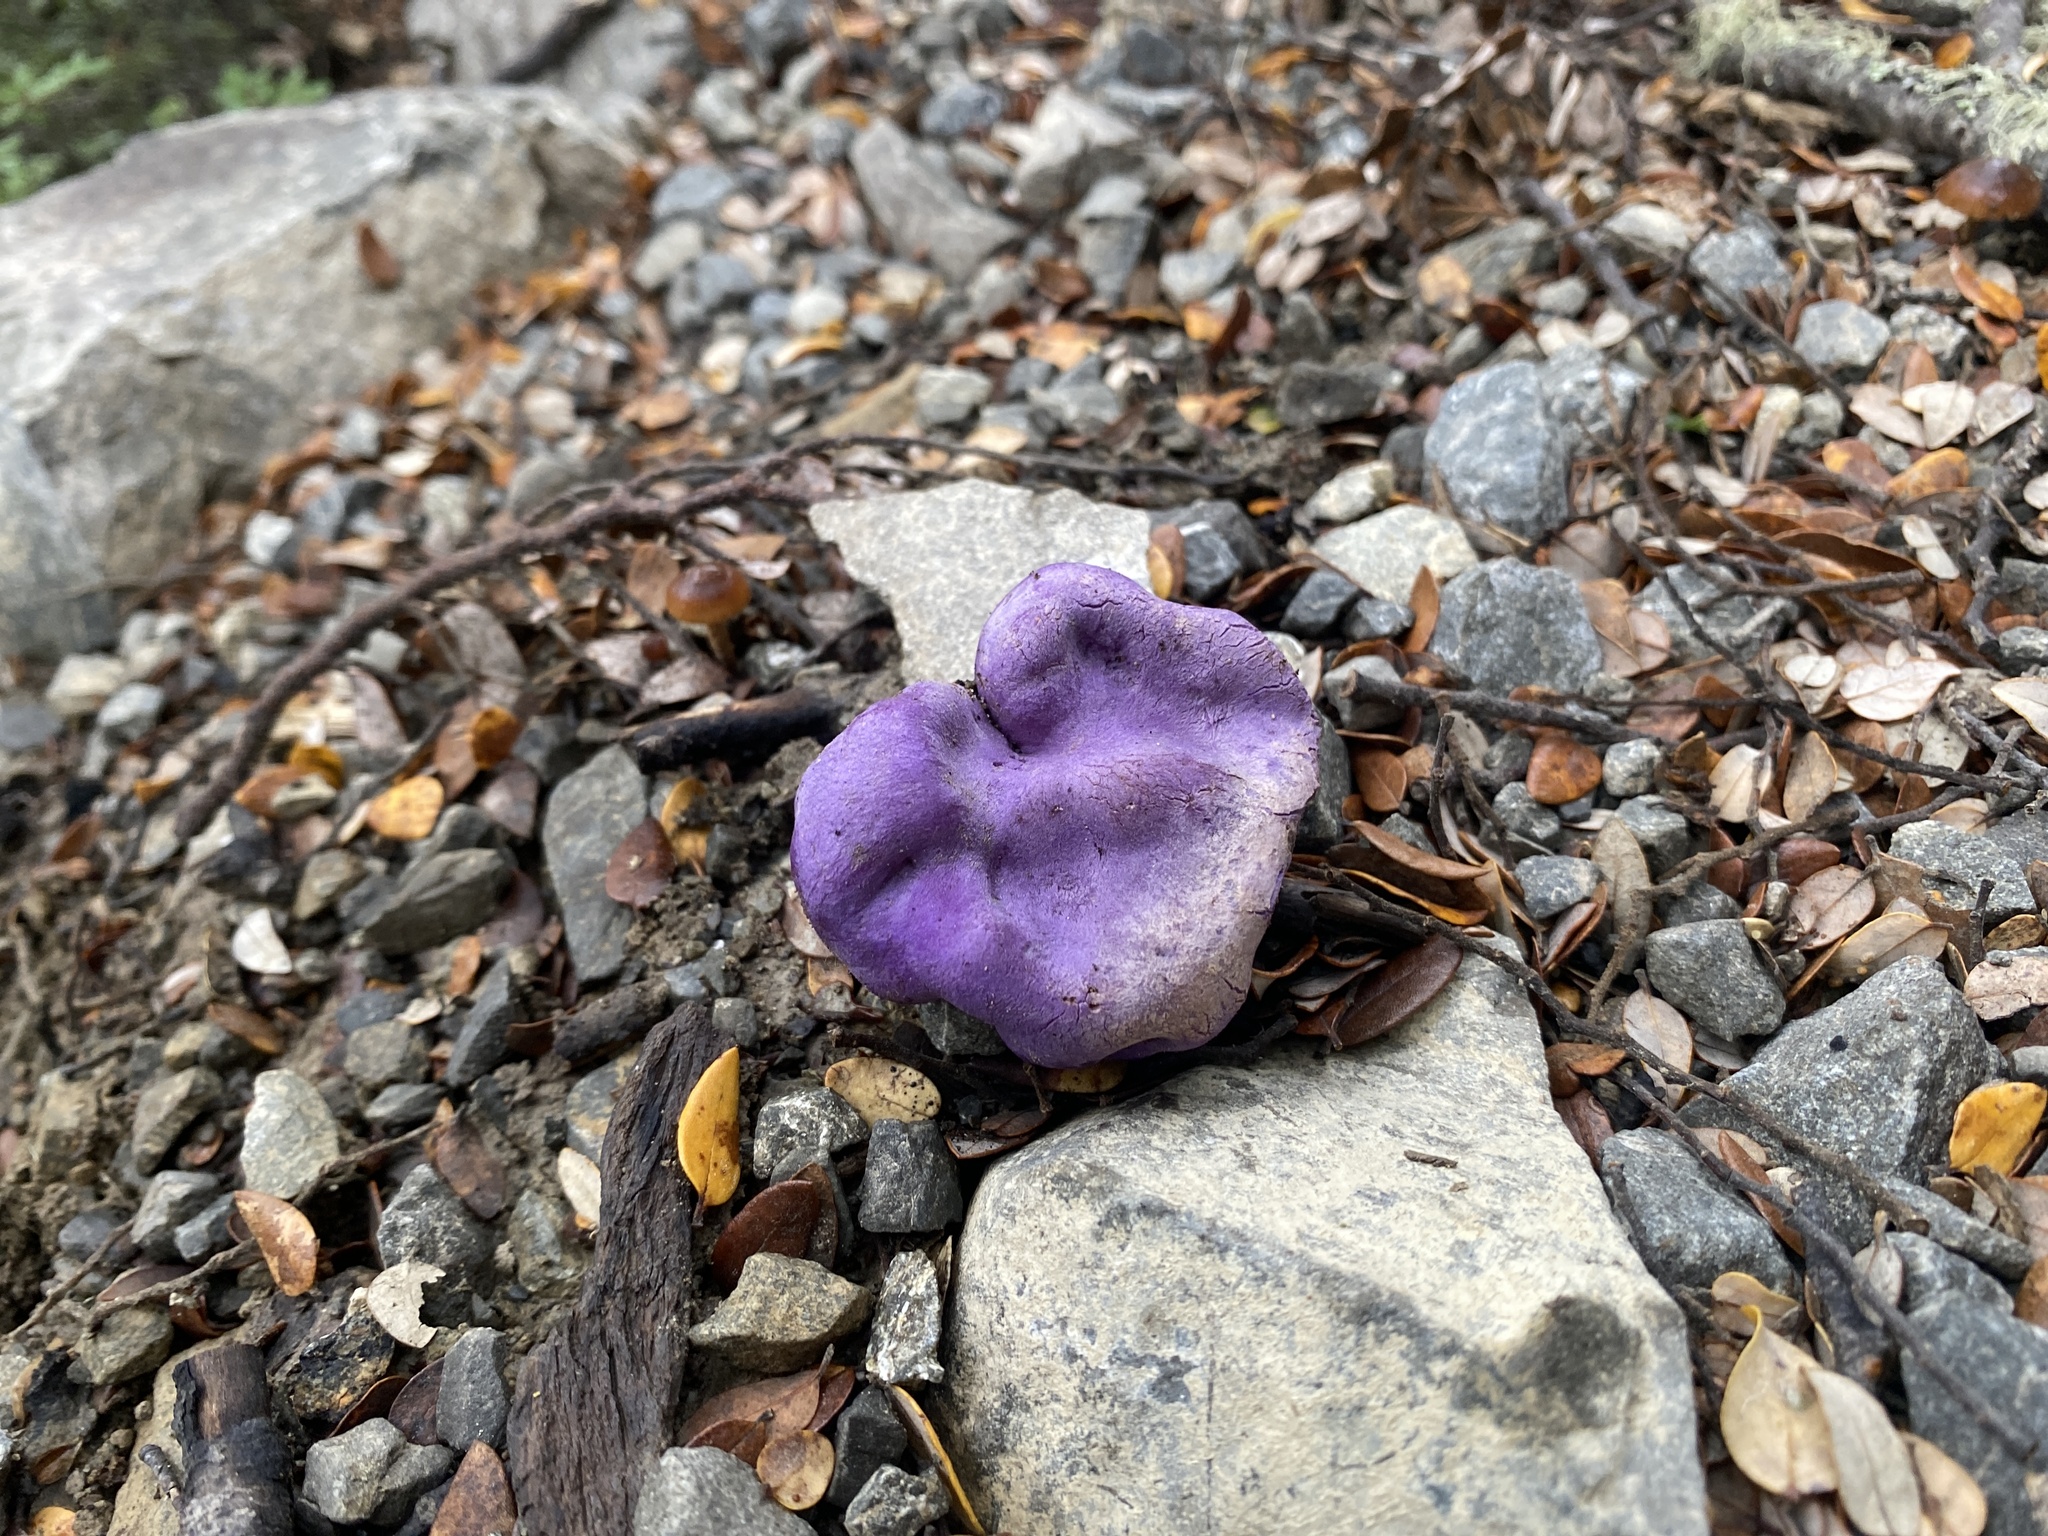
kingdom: Fungi
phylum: Basidiomycota
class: Agaricomycetes
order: Hysterangiales
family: Gallaceaceae
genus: Gallacea
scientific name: Gallacea scleroderma
